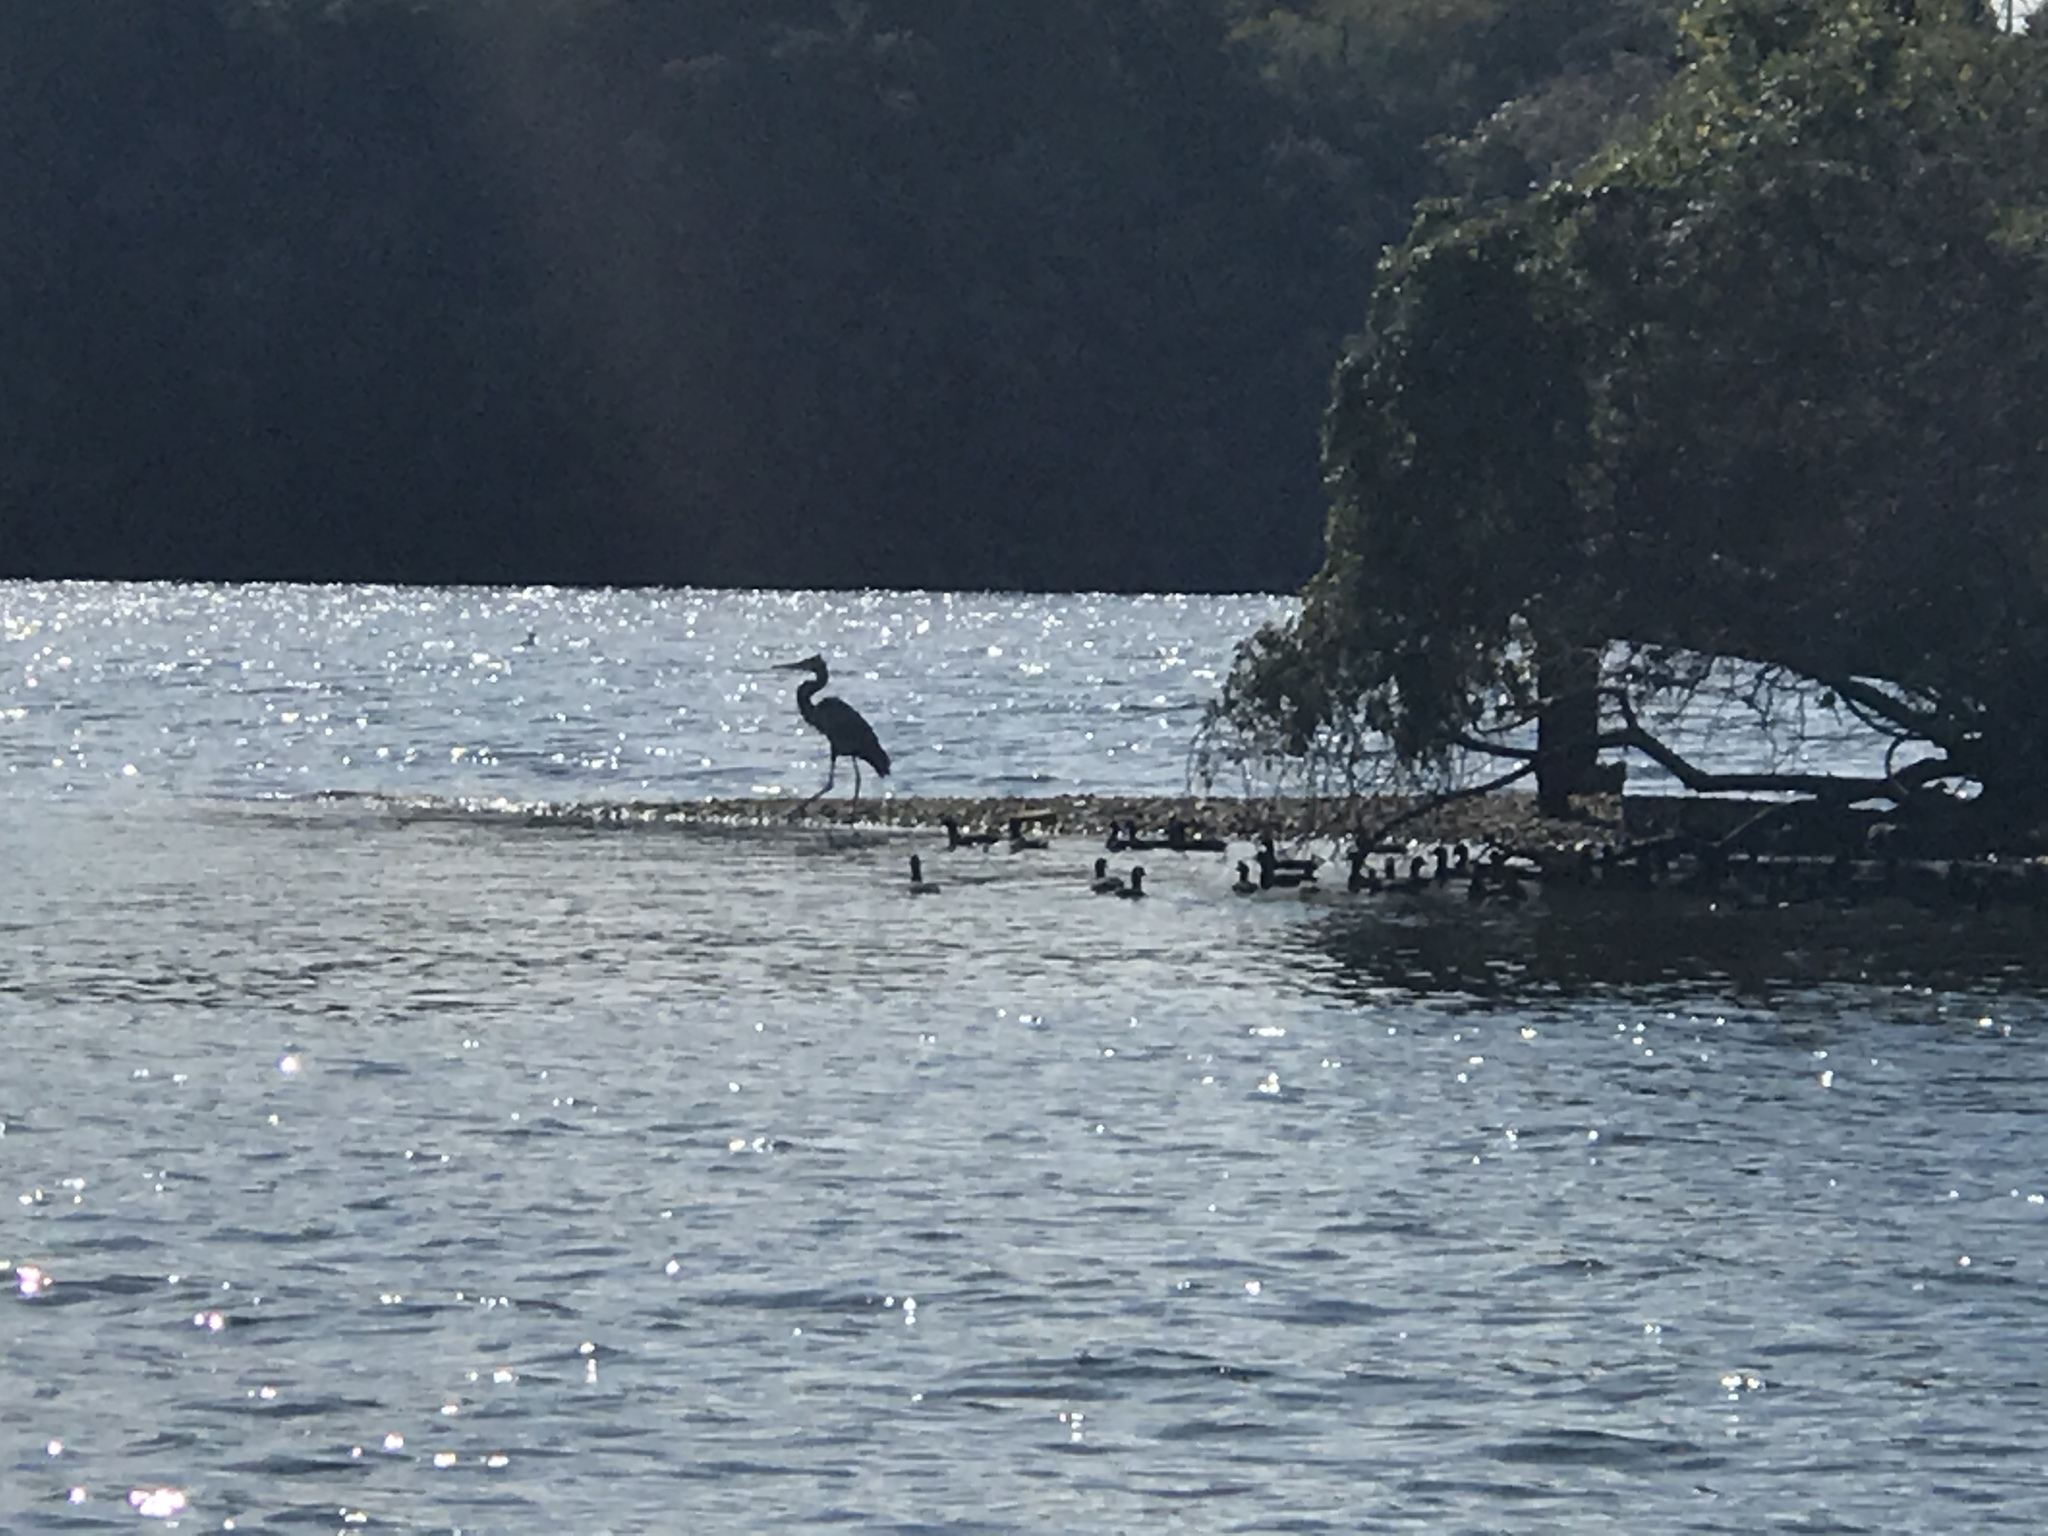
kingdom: Animalia
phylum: Chordata
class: Aves
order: Pelecaniformes
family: Ardeidae
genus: Ardea
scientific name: Ardea herodias
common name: Great blue heron
